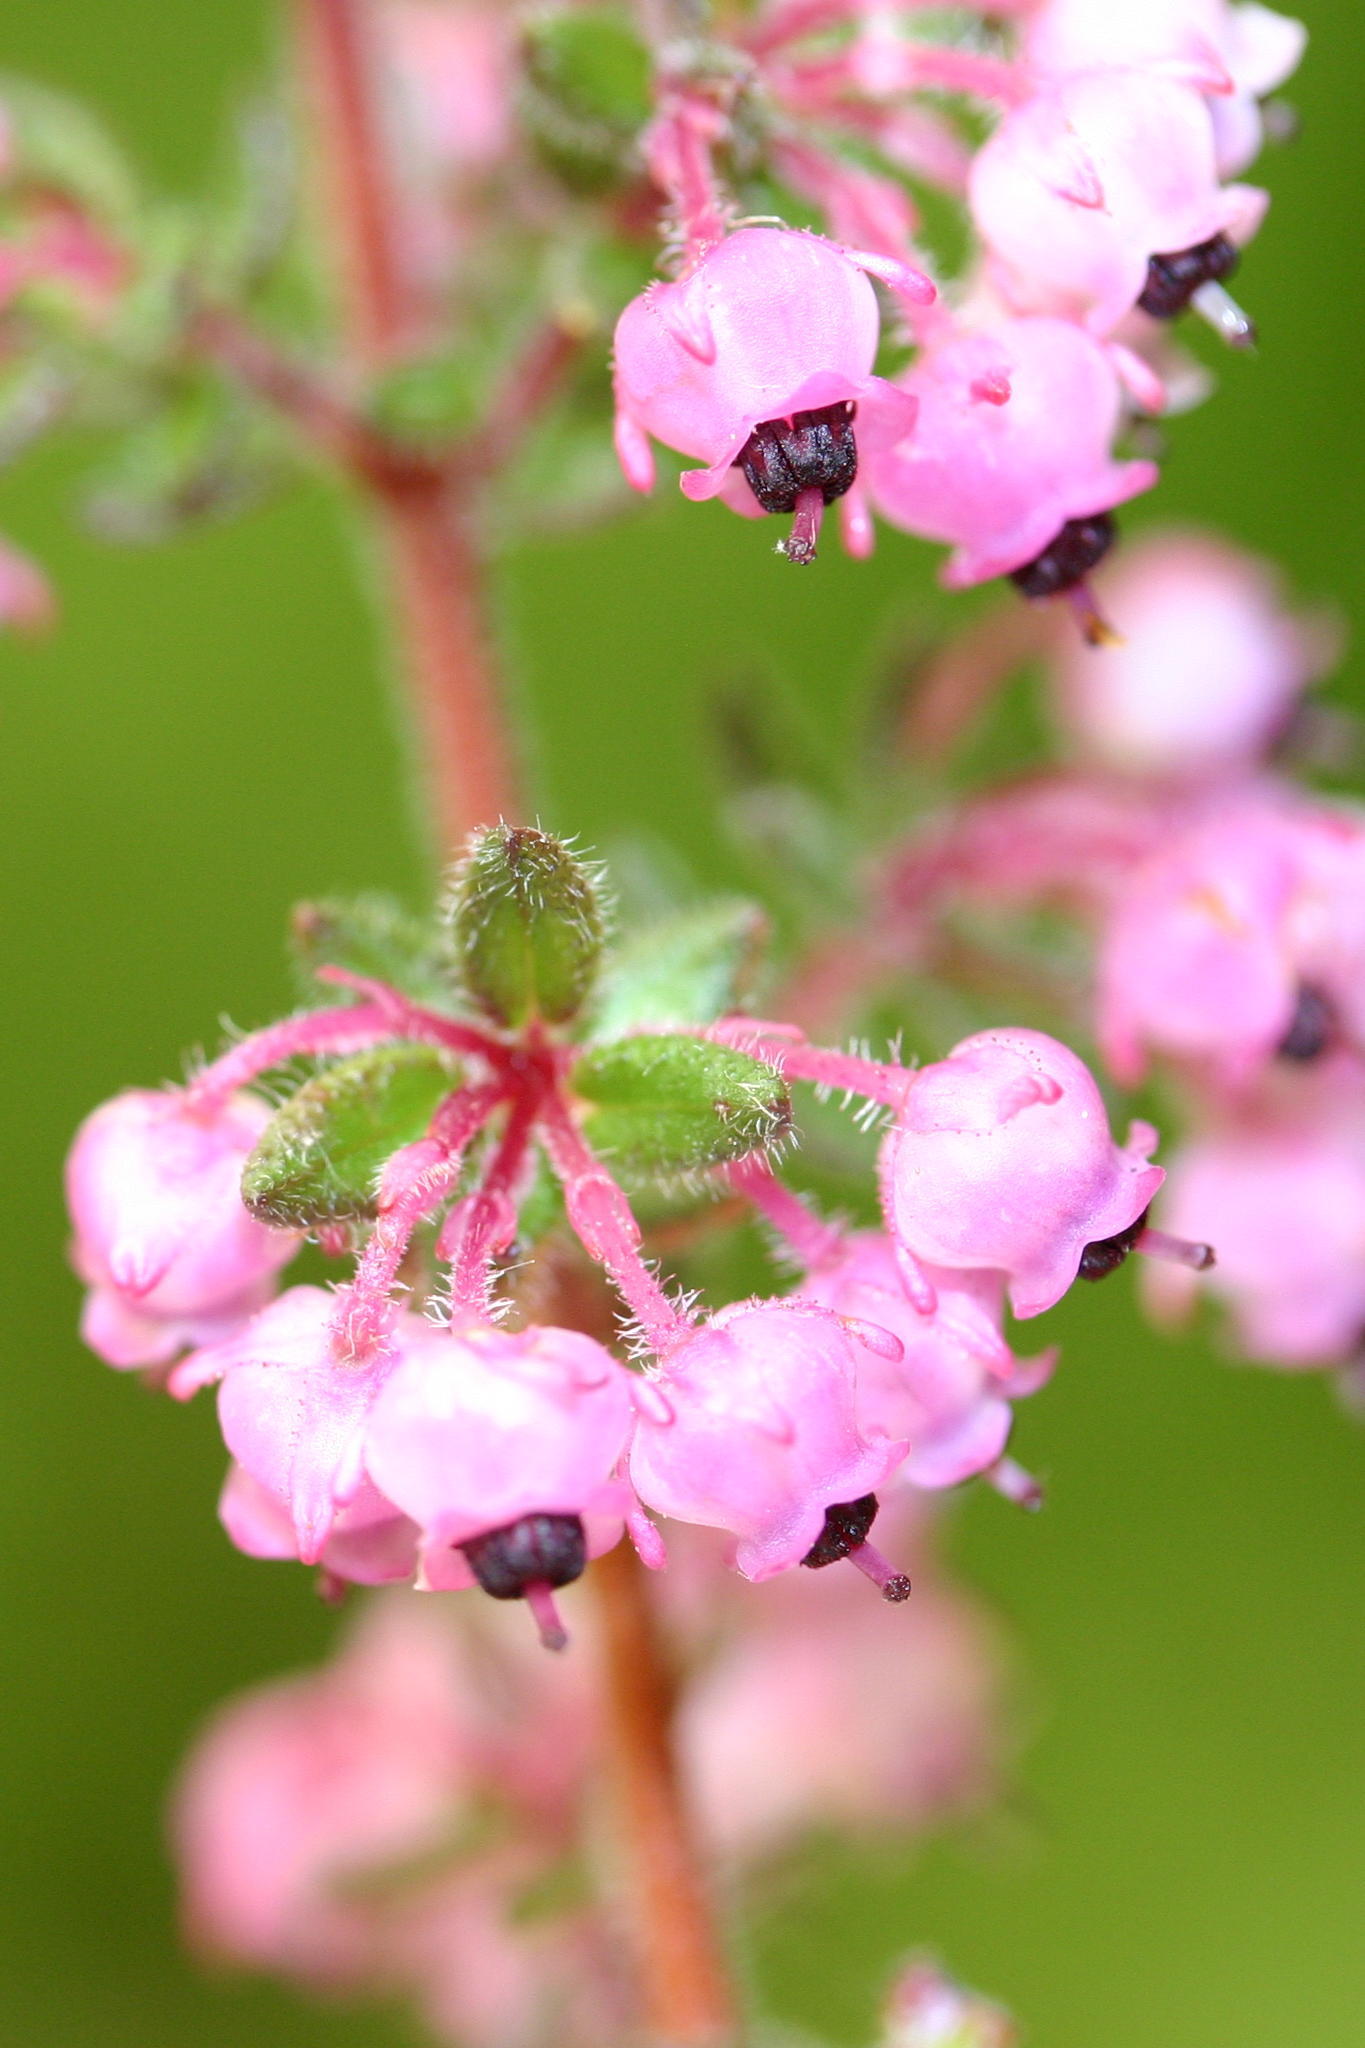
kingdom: Plantae
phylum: Tracheophyta
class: Magnoliopsida
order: Ericales
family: Ericaceae
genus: Erica
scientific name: Erica grata
